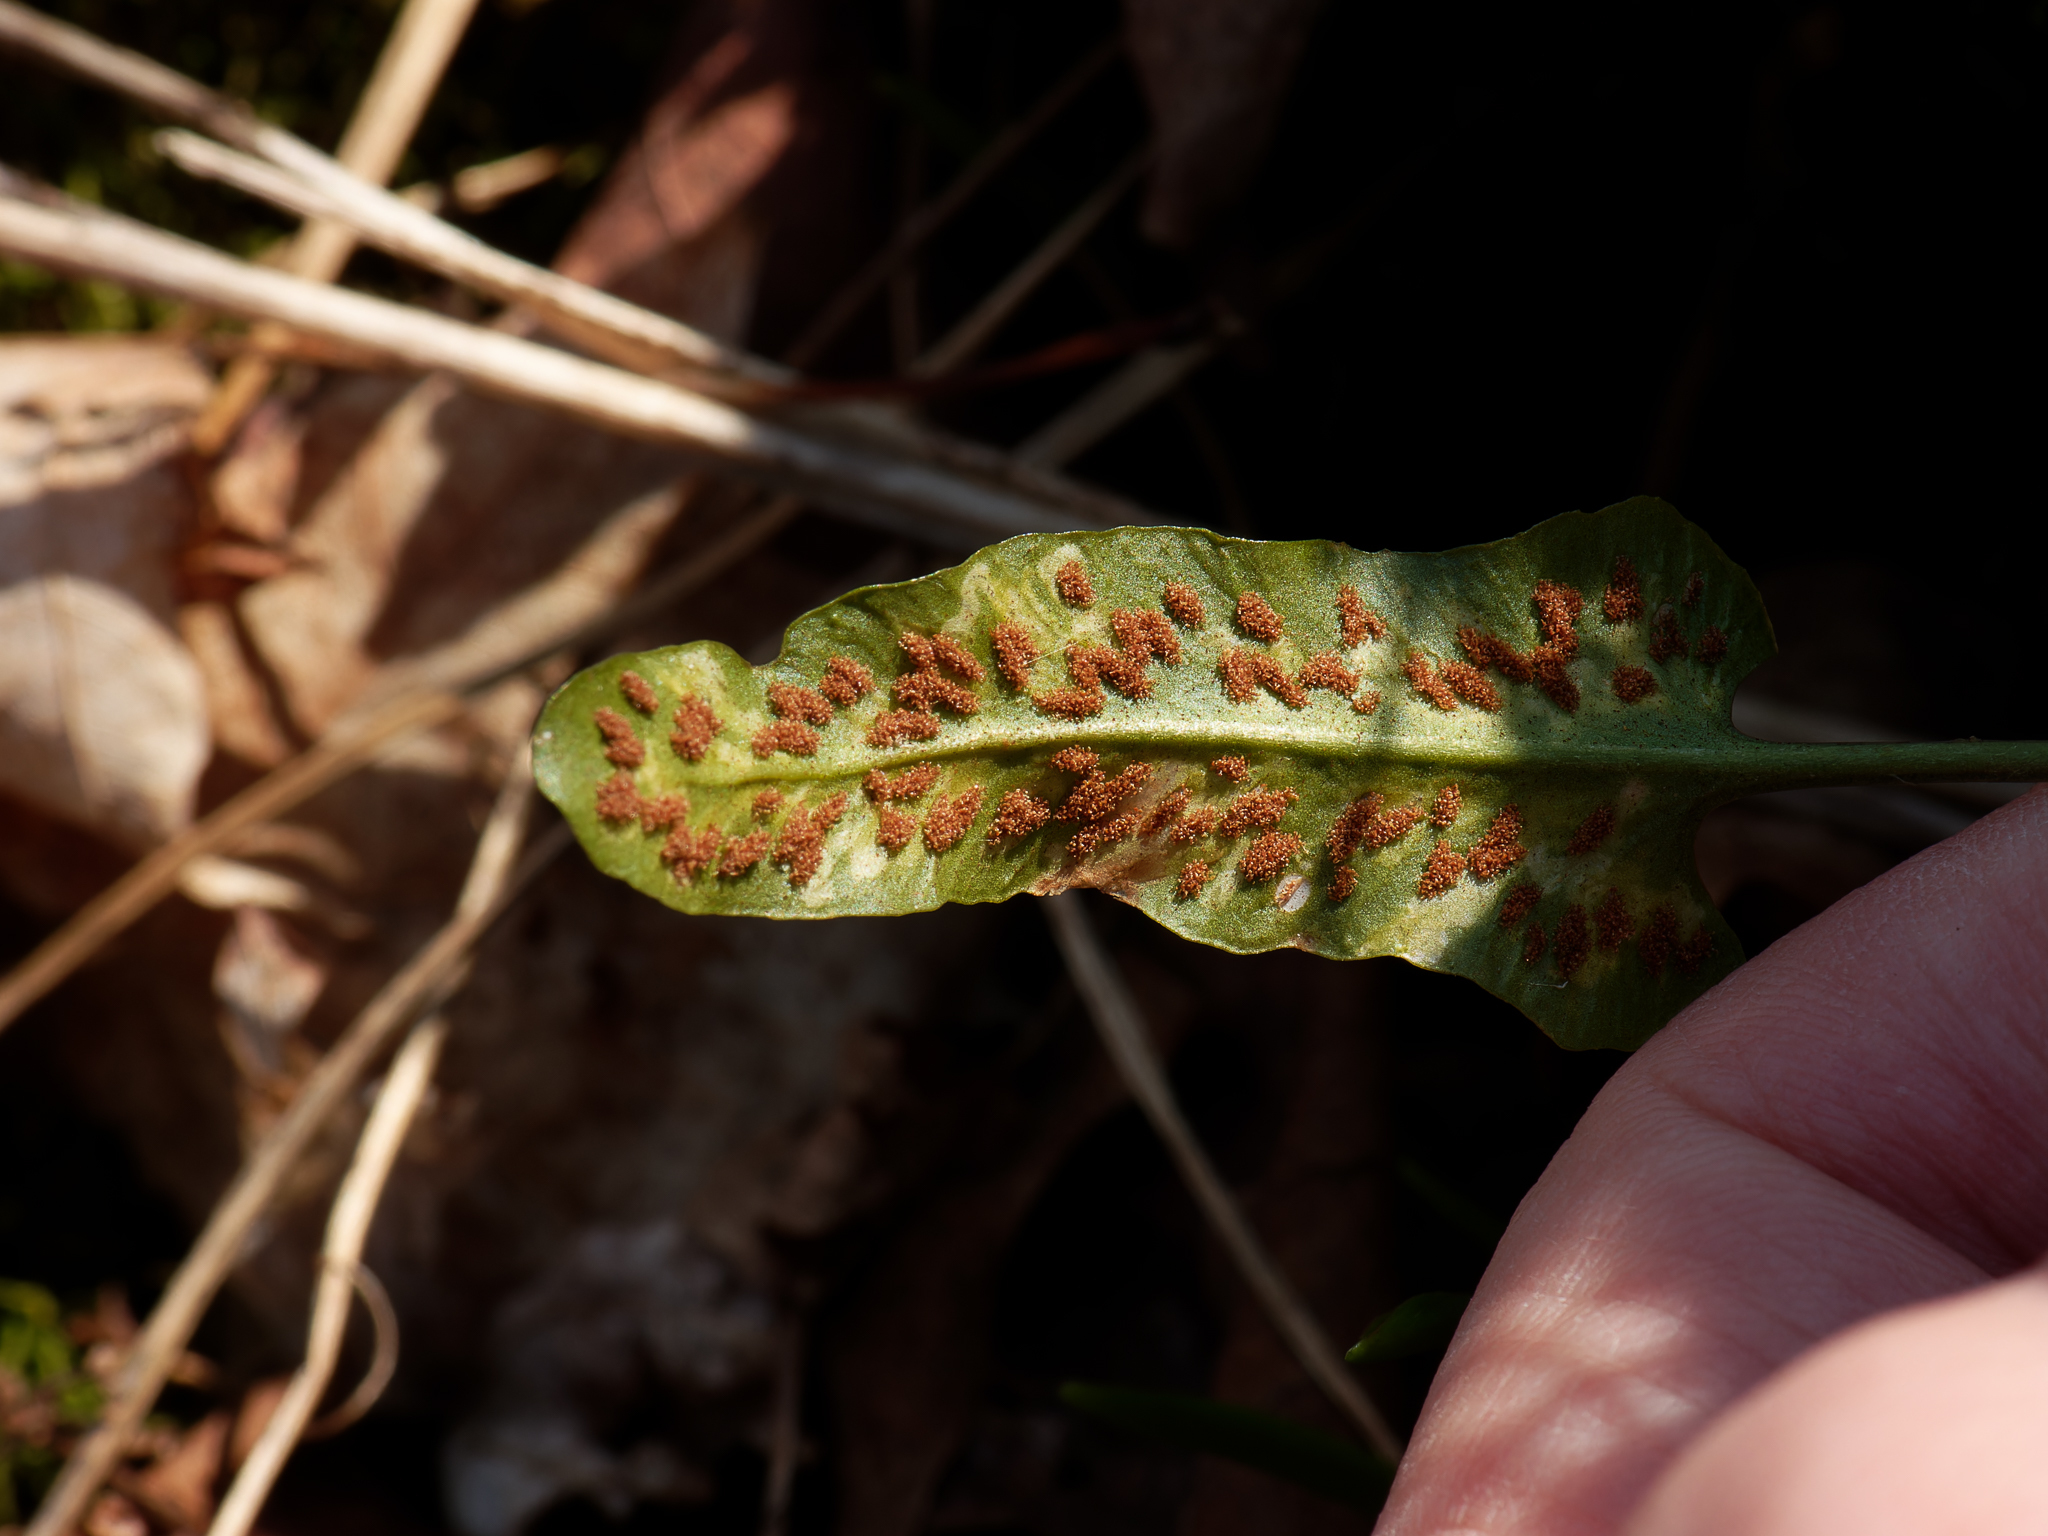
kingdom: Plantae
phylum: Tracheophyta
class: Polypodiopsida
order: Polypodiales
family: Aspleniaceae
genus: Asplenium
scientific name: Asplenium rhizophyllum
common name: Walking fern
